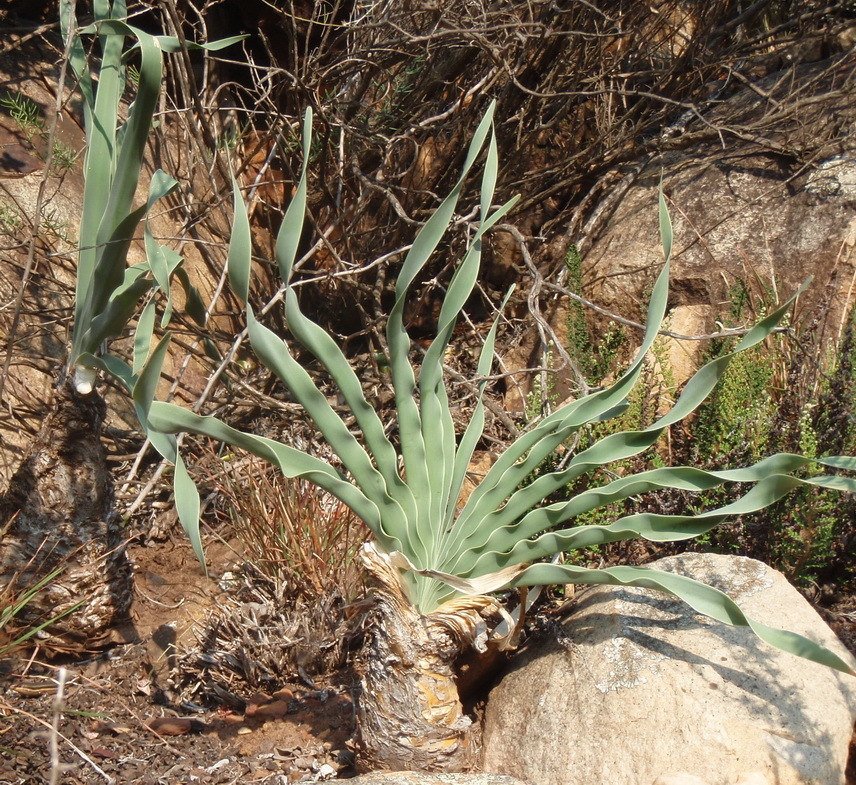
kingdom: Plantae
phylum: Tracheophyta
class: Liliopsida
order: Asparagales
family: Amaryllidaceae
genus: Boophone
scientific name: Boophone disticha
